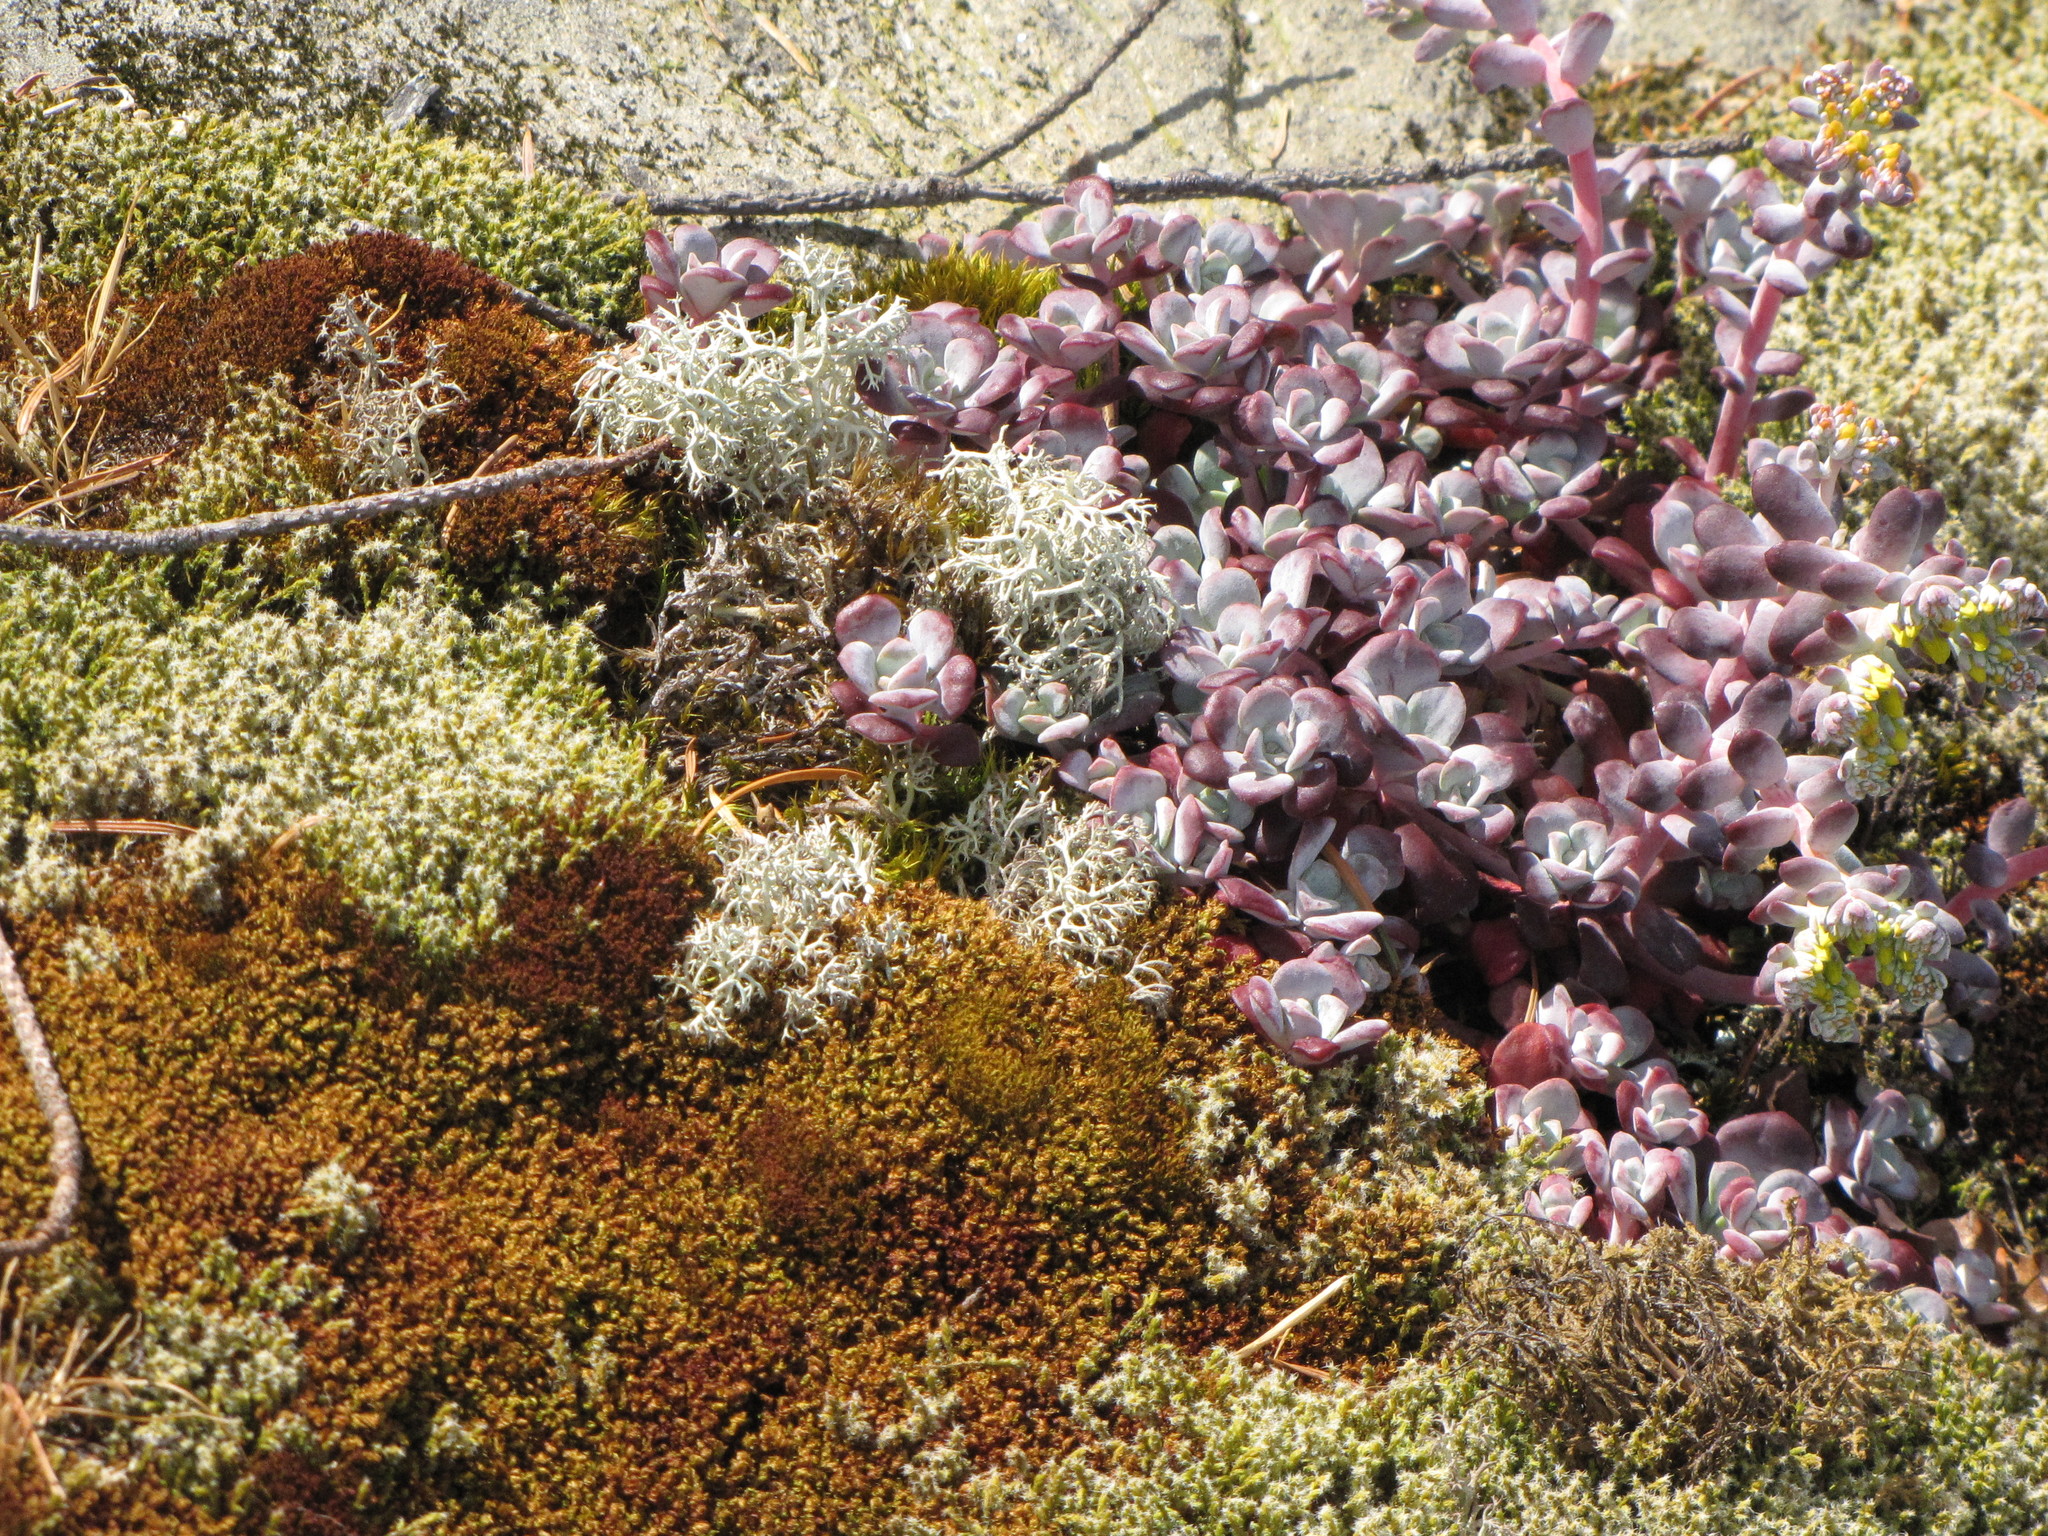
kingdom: Plantae
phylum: Tracheophyta
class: Magnoliopsida
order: Saxifragales
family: Crassulaceae
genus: Sedum
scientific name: Sedum spathulifolium
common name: Colorado stonecrop
